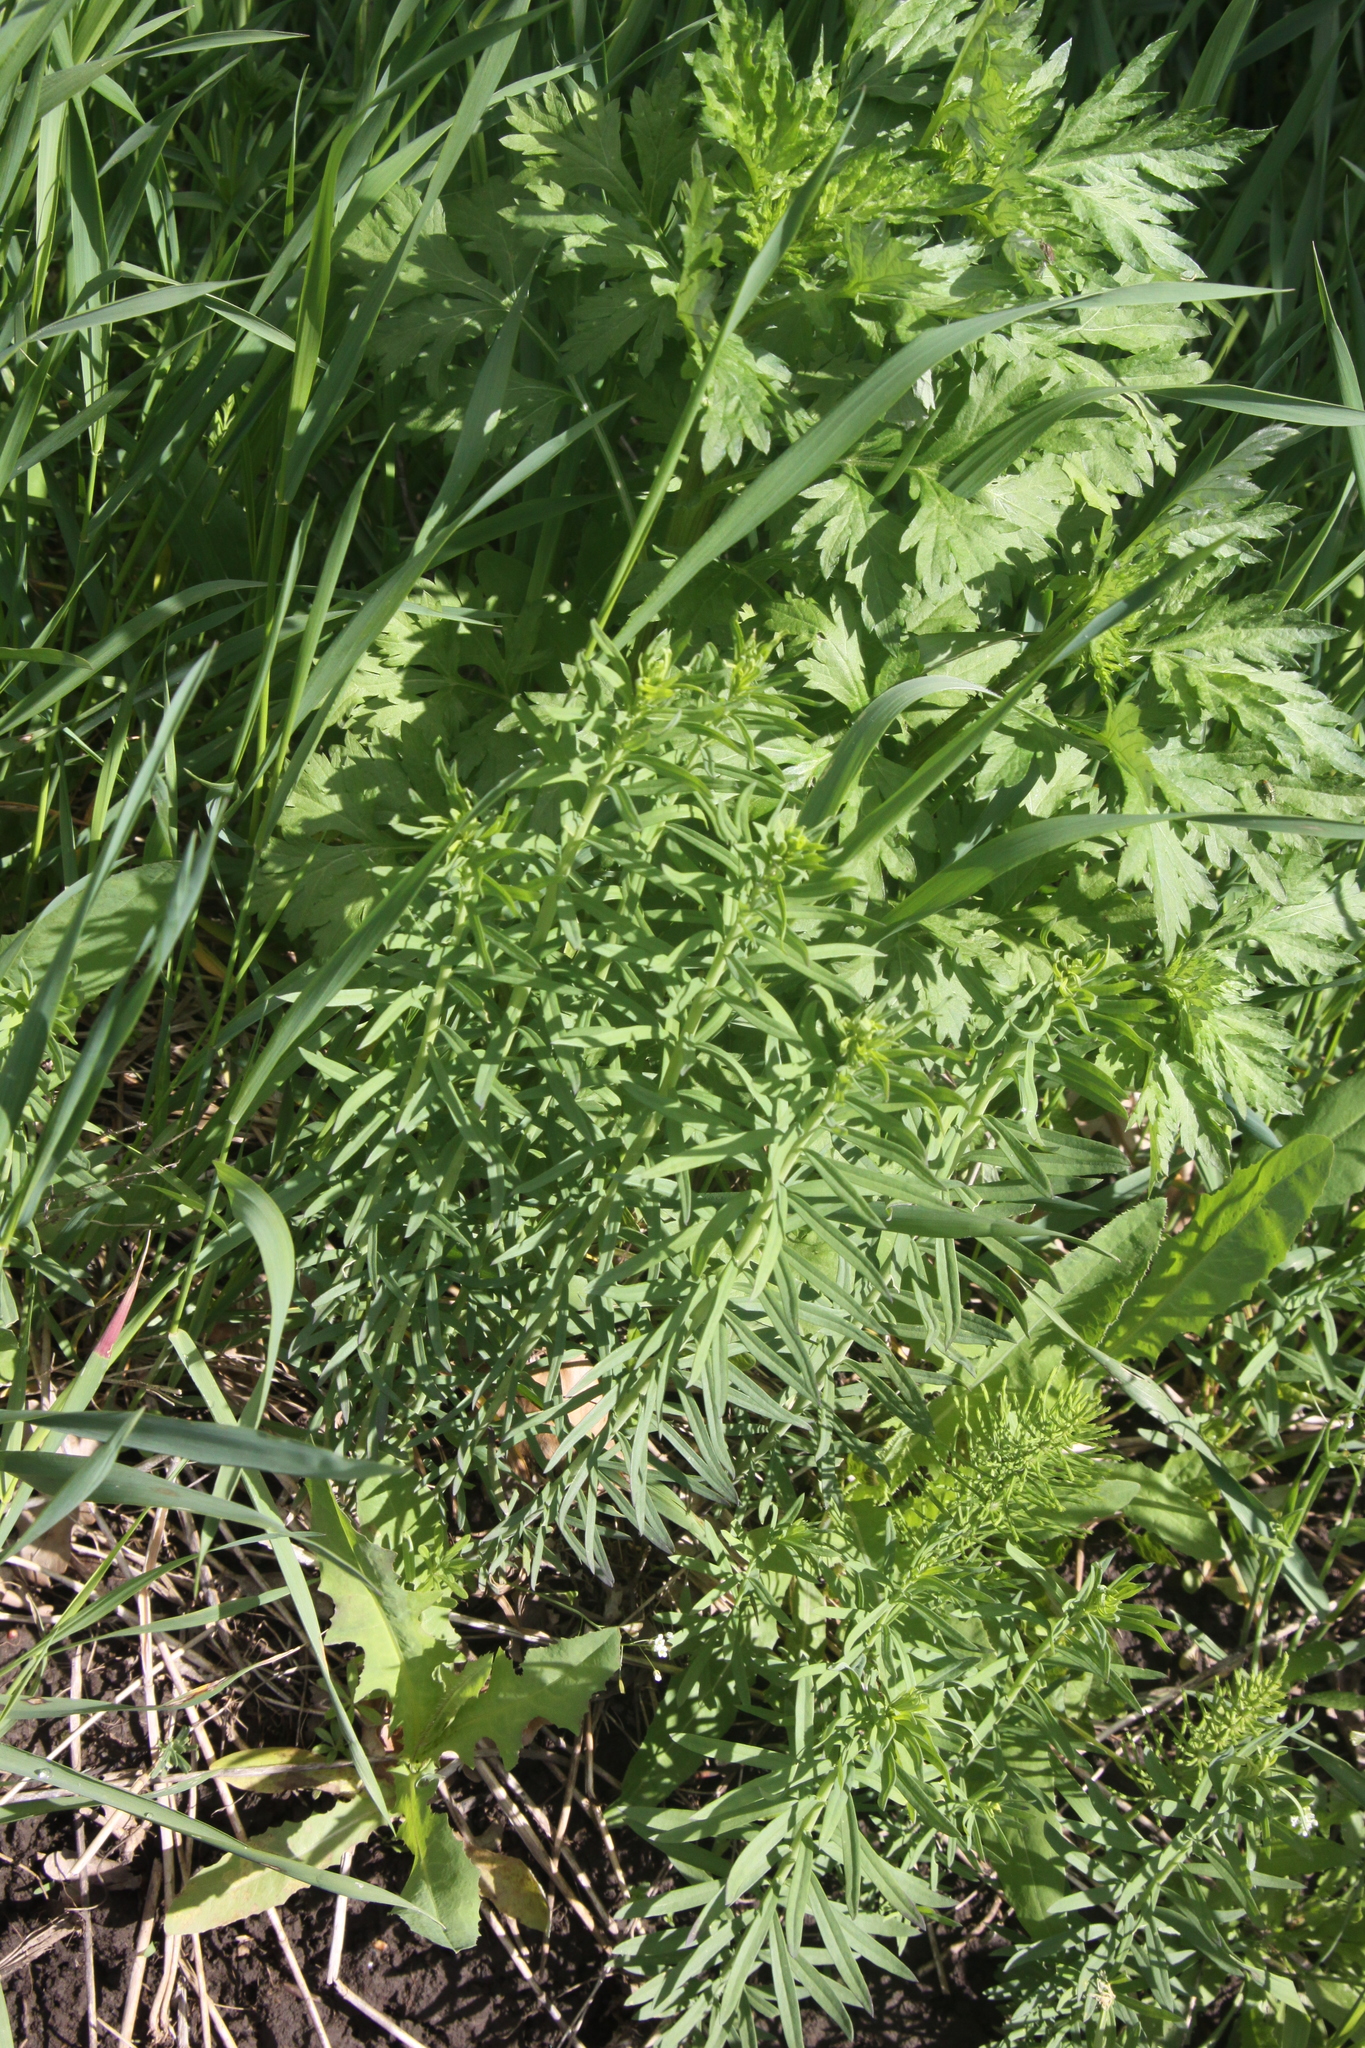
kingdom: Plantae
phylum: Tracheophyta
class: Magnoliopsida
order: Lamiales
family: Plantaginaceae
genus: Linaria
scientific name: Linaria vulgaris
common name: Butter and eggs
